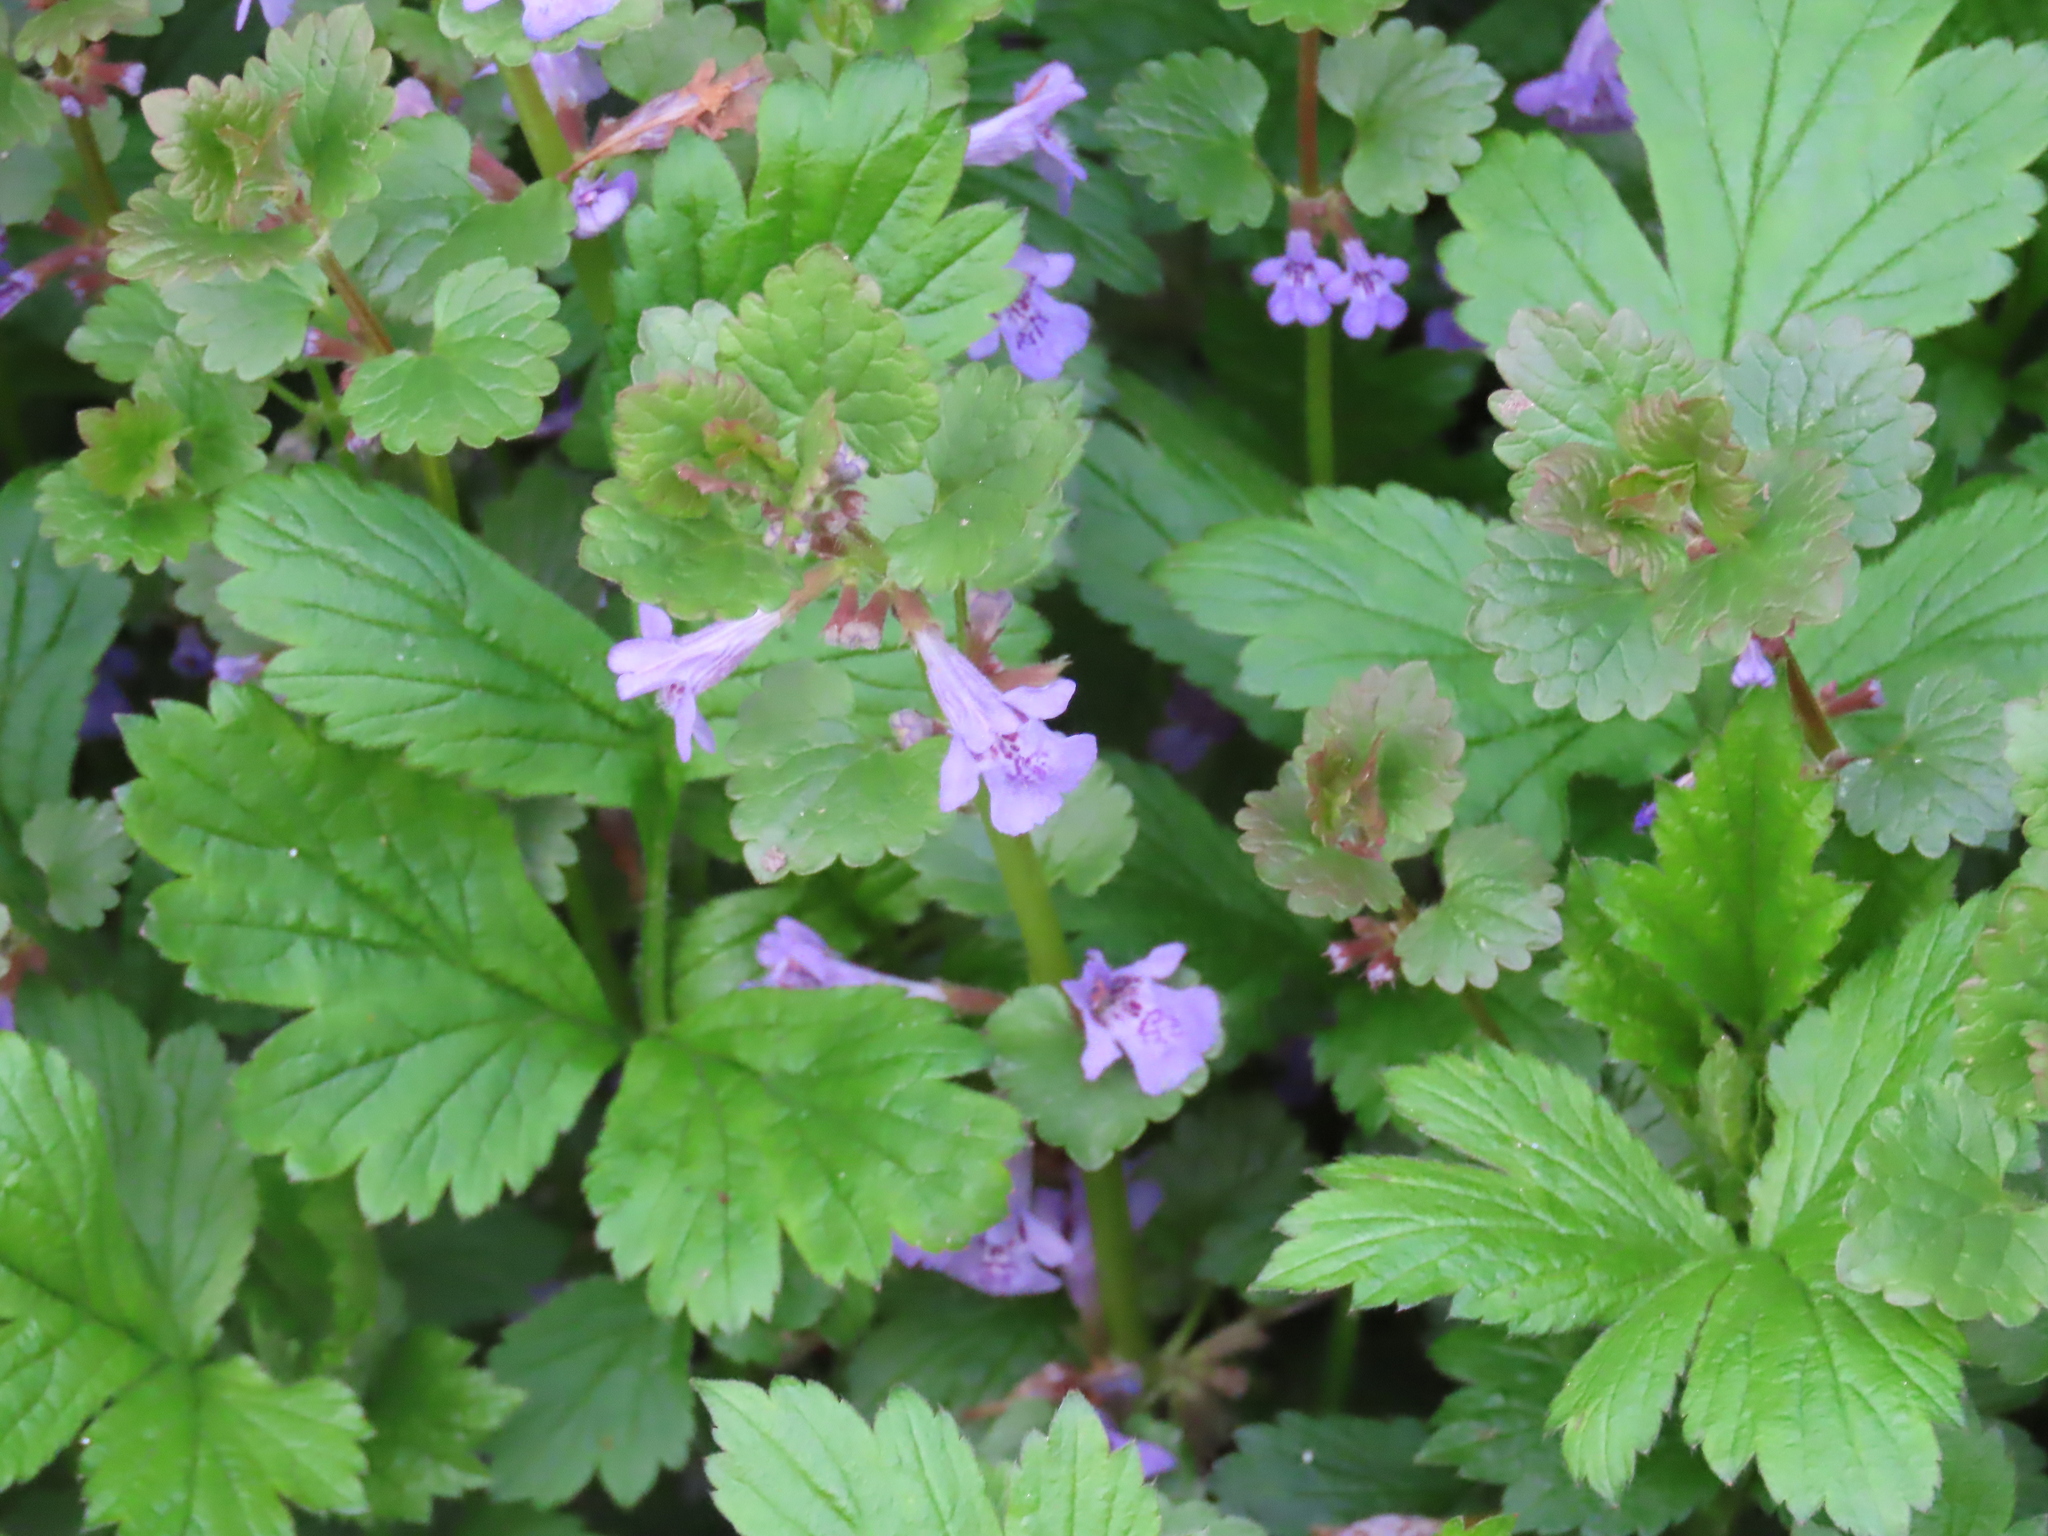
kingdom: Plantae
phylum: Tracheophyta
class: Magnoliopsida
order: Lamiales
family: Lamiaceae
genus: Glechoma
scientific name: Glechoma hederacea
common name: Ground ivy
